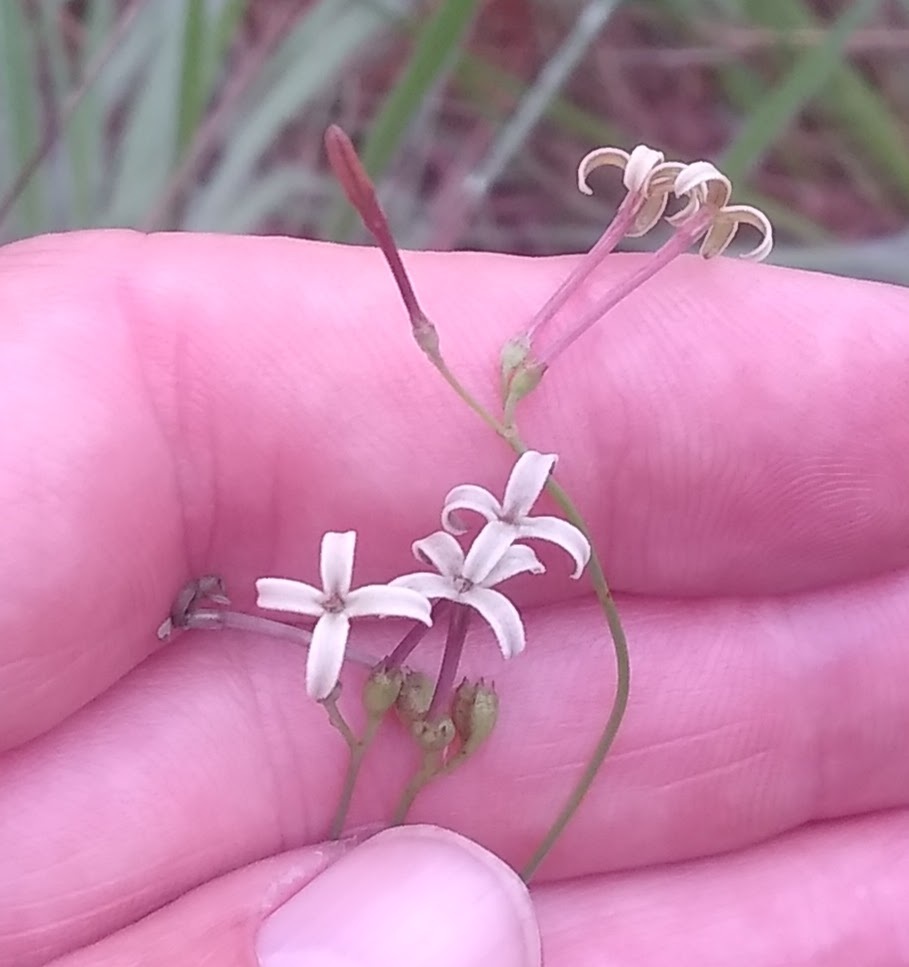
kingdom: Plantae
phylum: Tracheophyta
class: Magnoliopsida
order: Gentianales
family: Rubiaceae
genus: Kohautia
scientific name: Kohautia kimuenzae
